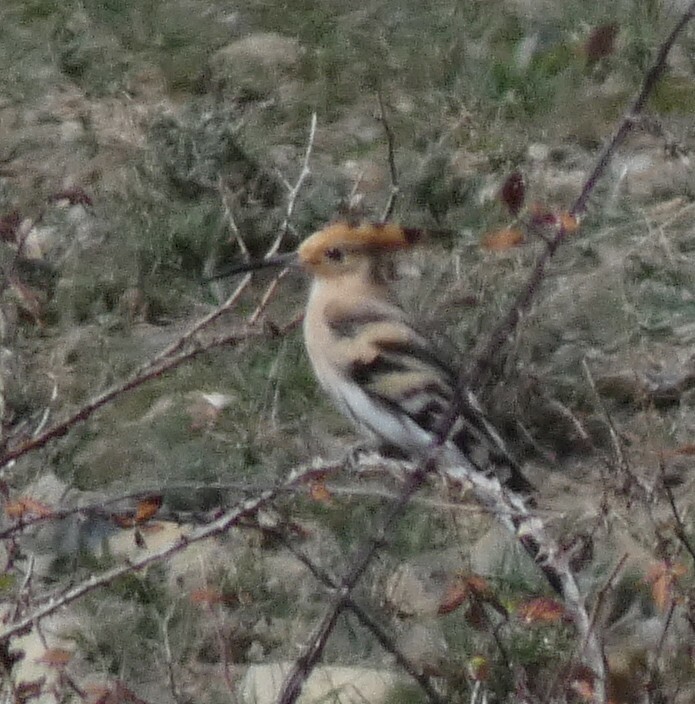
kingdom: Animalia
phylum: Chordata
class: Aves
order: Bucerotiformes
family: Upupidae
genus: Upupa
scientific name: Upupa epops
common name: Eurasian hoopoe
